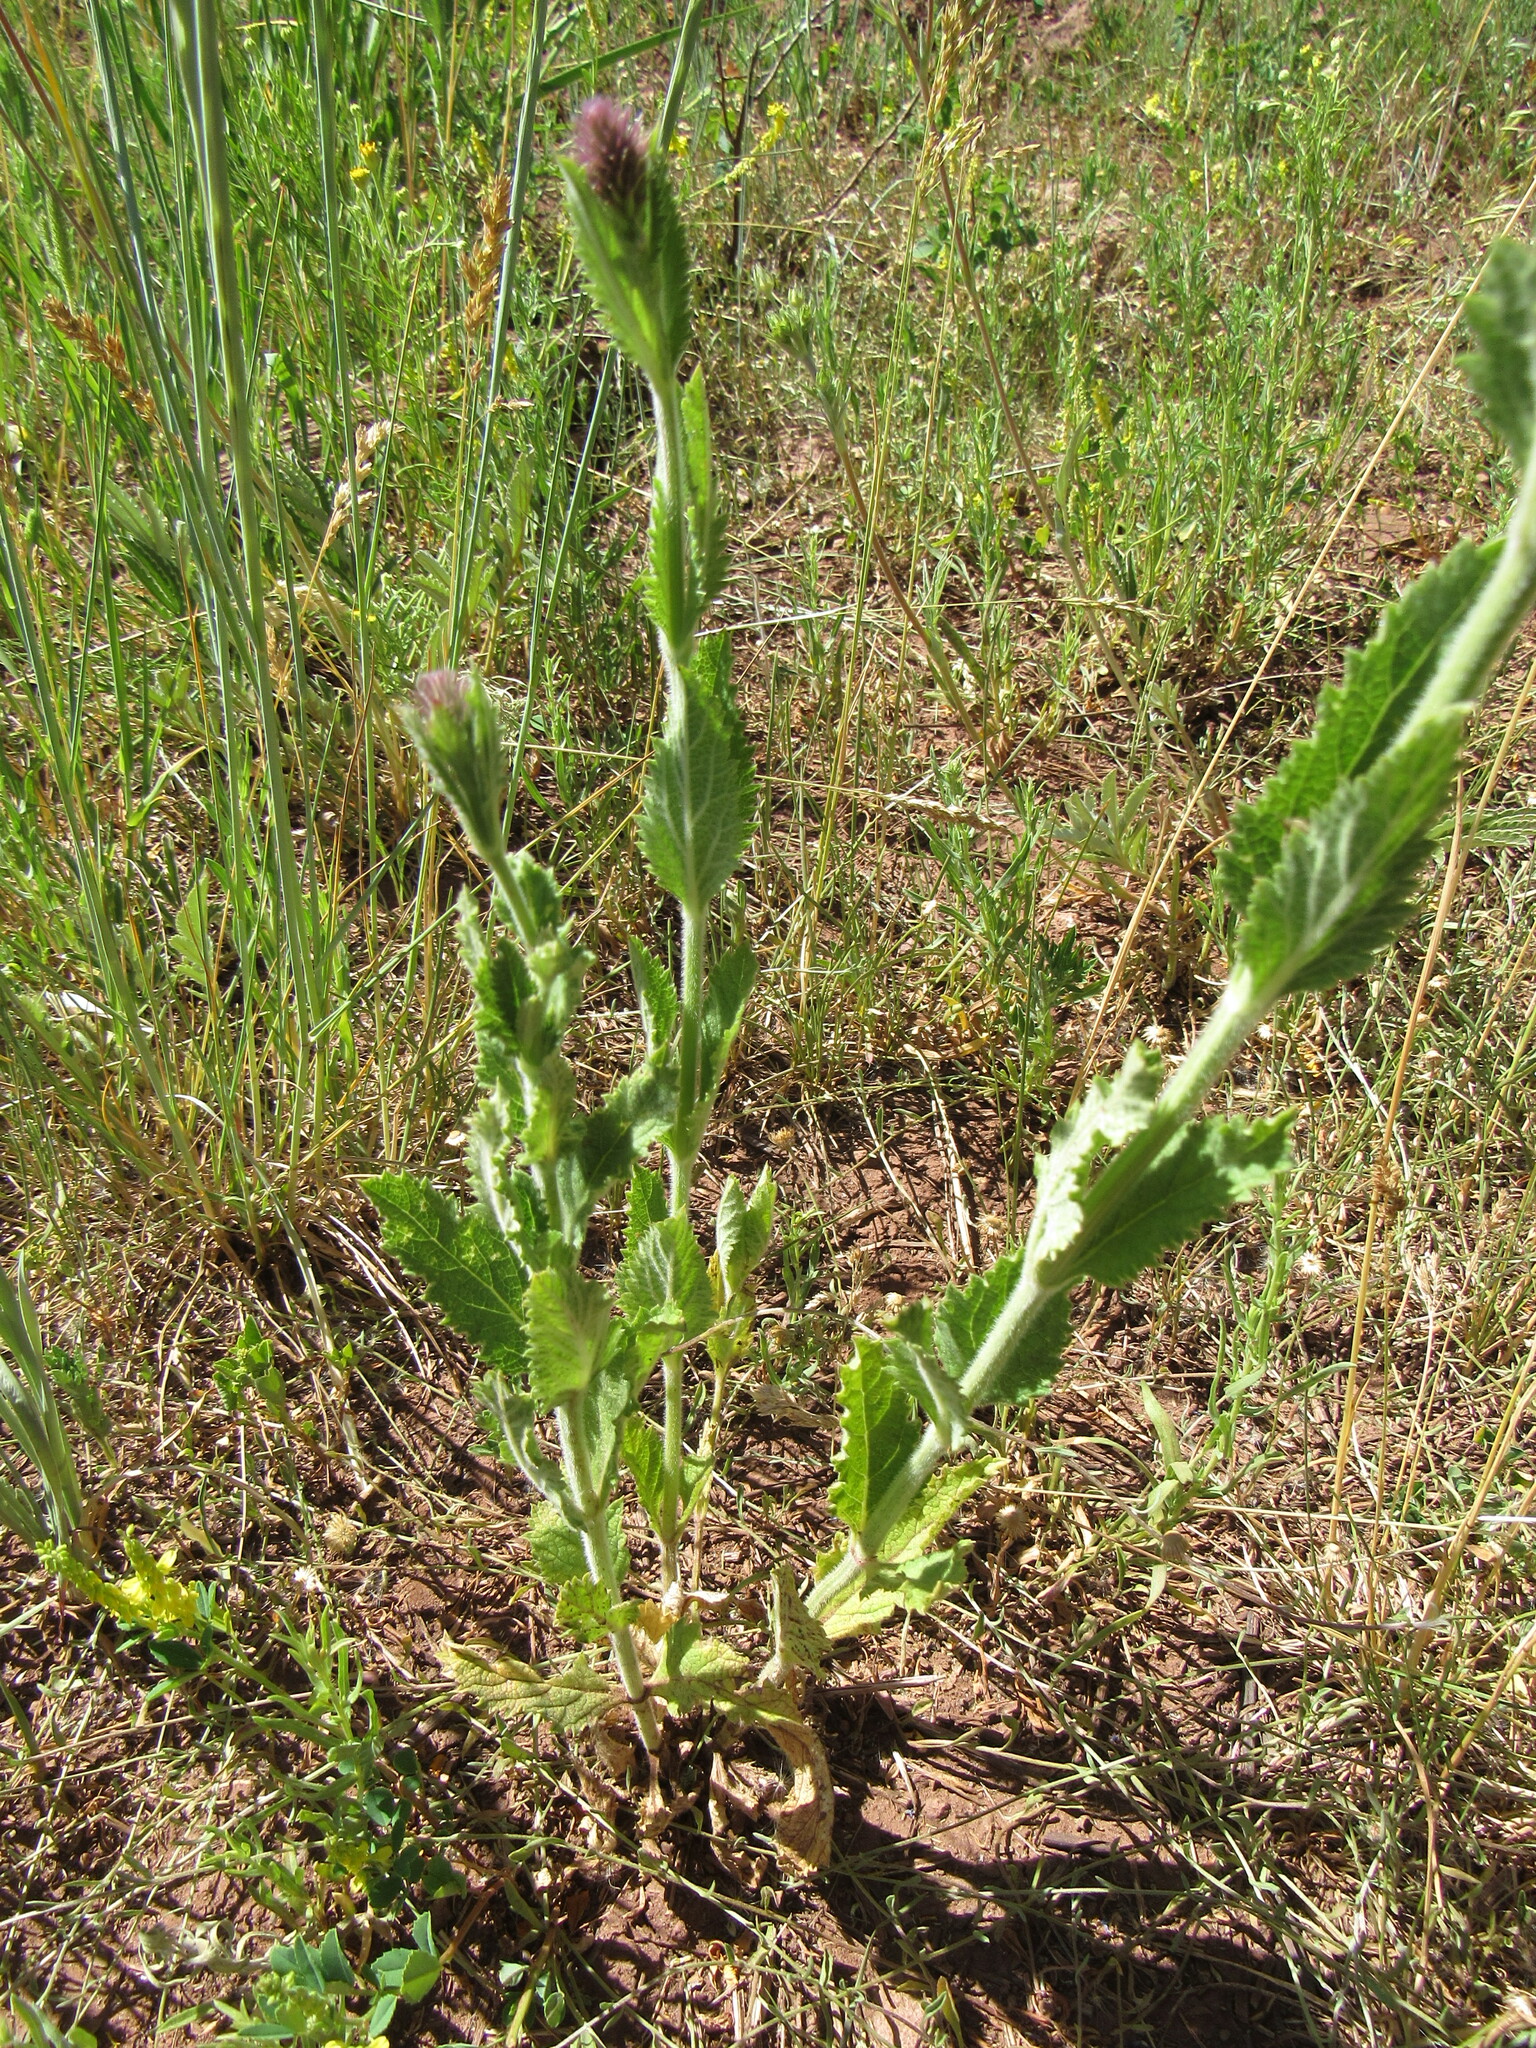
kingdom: Plantae
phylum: Tracheophyta
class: Magnoliopsida
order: Lamiales
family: Verbenaceae
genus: Verbena
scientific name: Verbena macdougalii
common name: New mexico vervain
